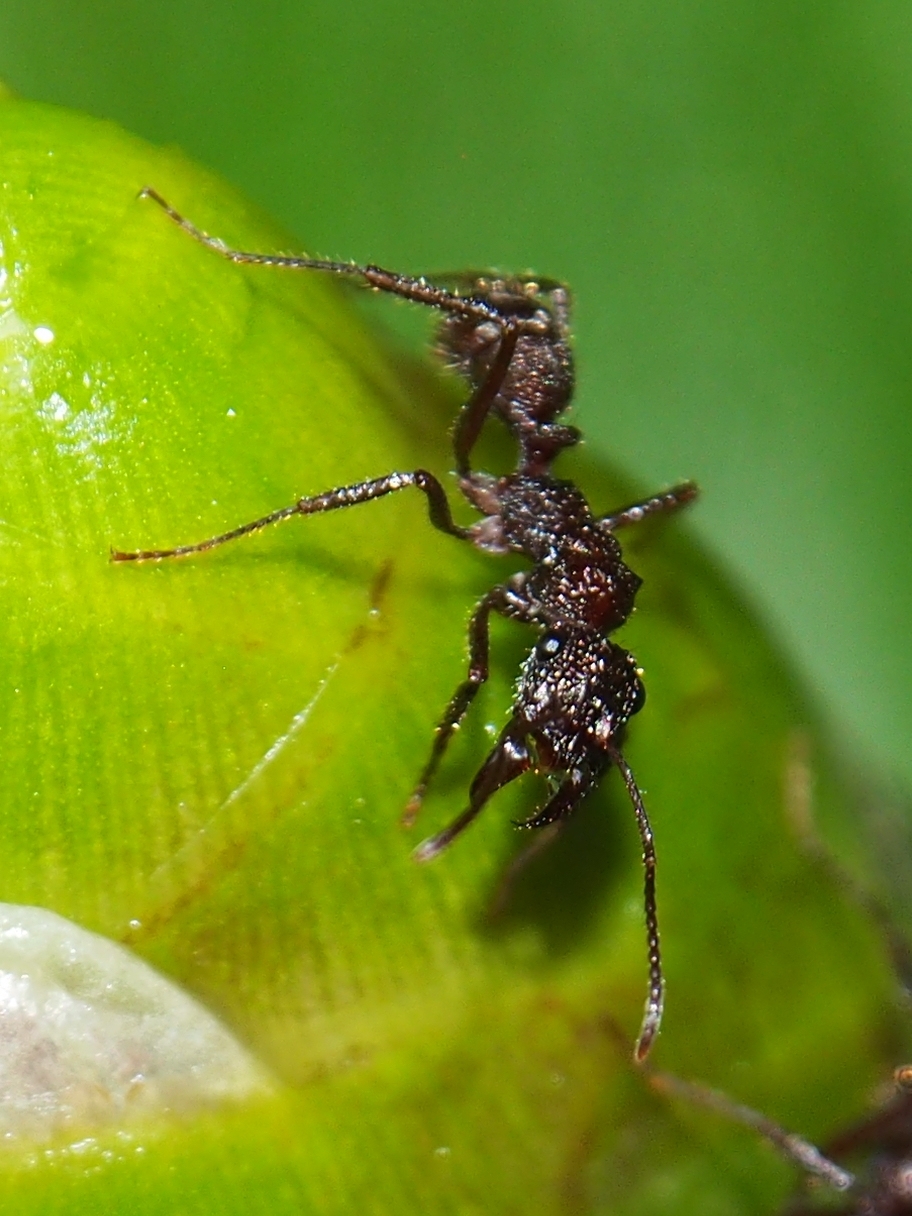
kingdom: Plantae
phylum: Tracheophyta
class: Liliopsida
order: Zingiberales
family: Costaceae
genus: Costus
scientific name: Costus laevis
